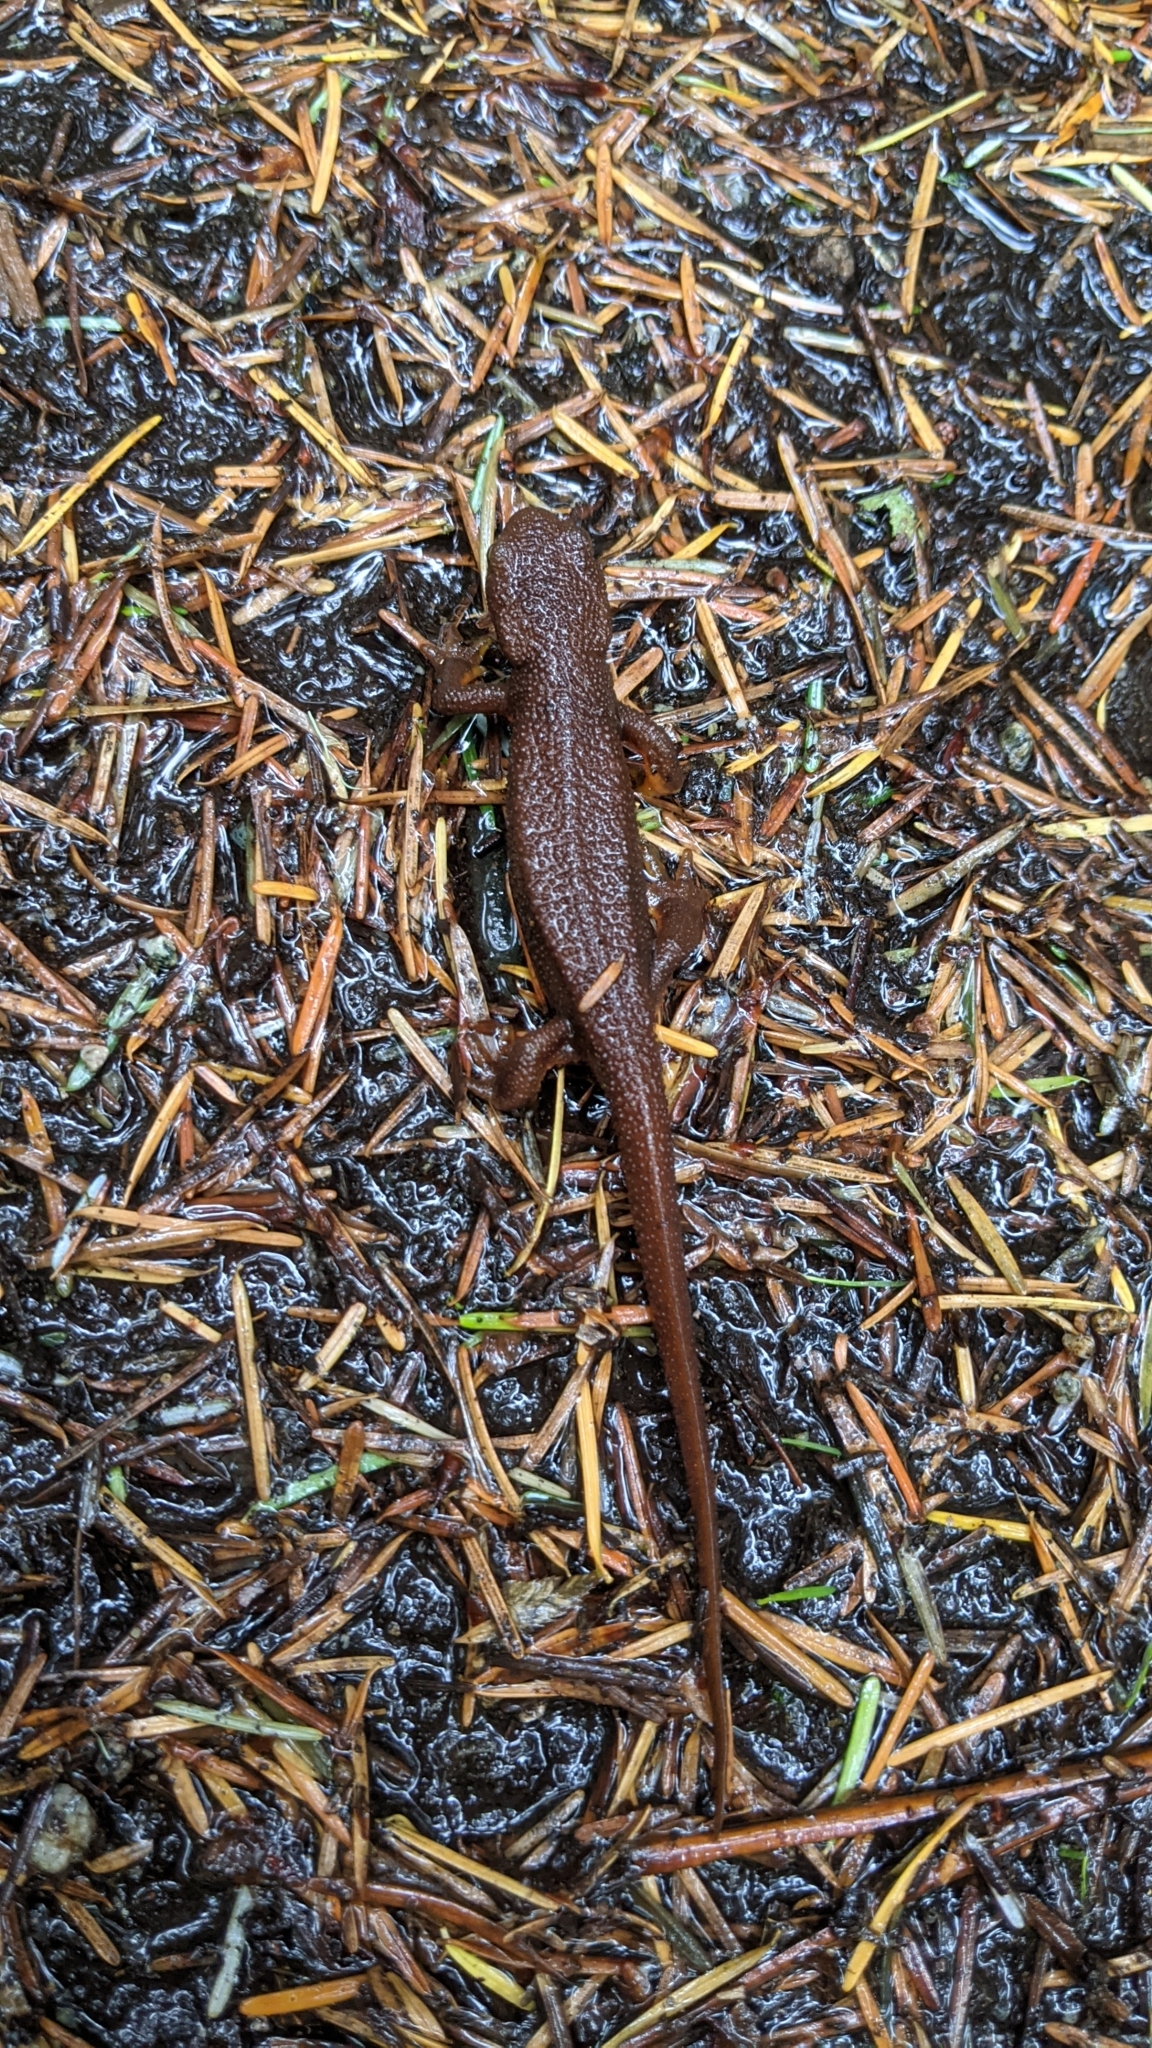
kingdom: Animalia
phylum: Chordata
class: Amphibia
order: Caudata
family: Salamandridae
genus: Taricha
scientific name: Taricha granulosa
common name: Roughskin newt
